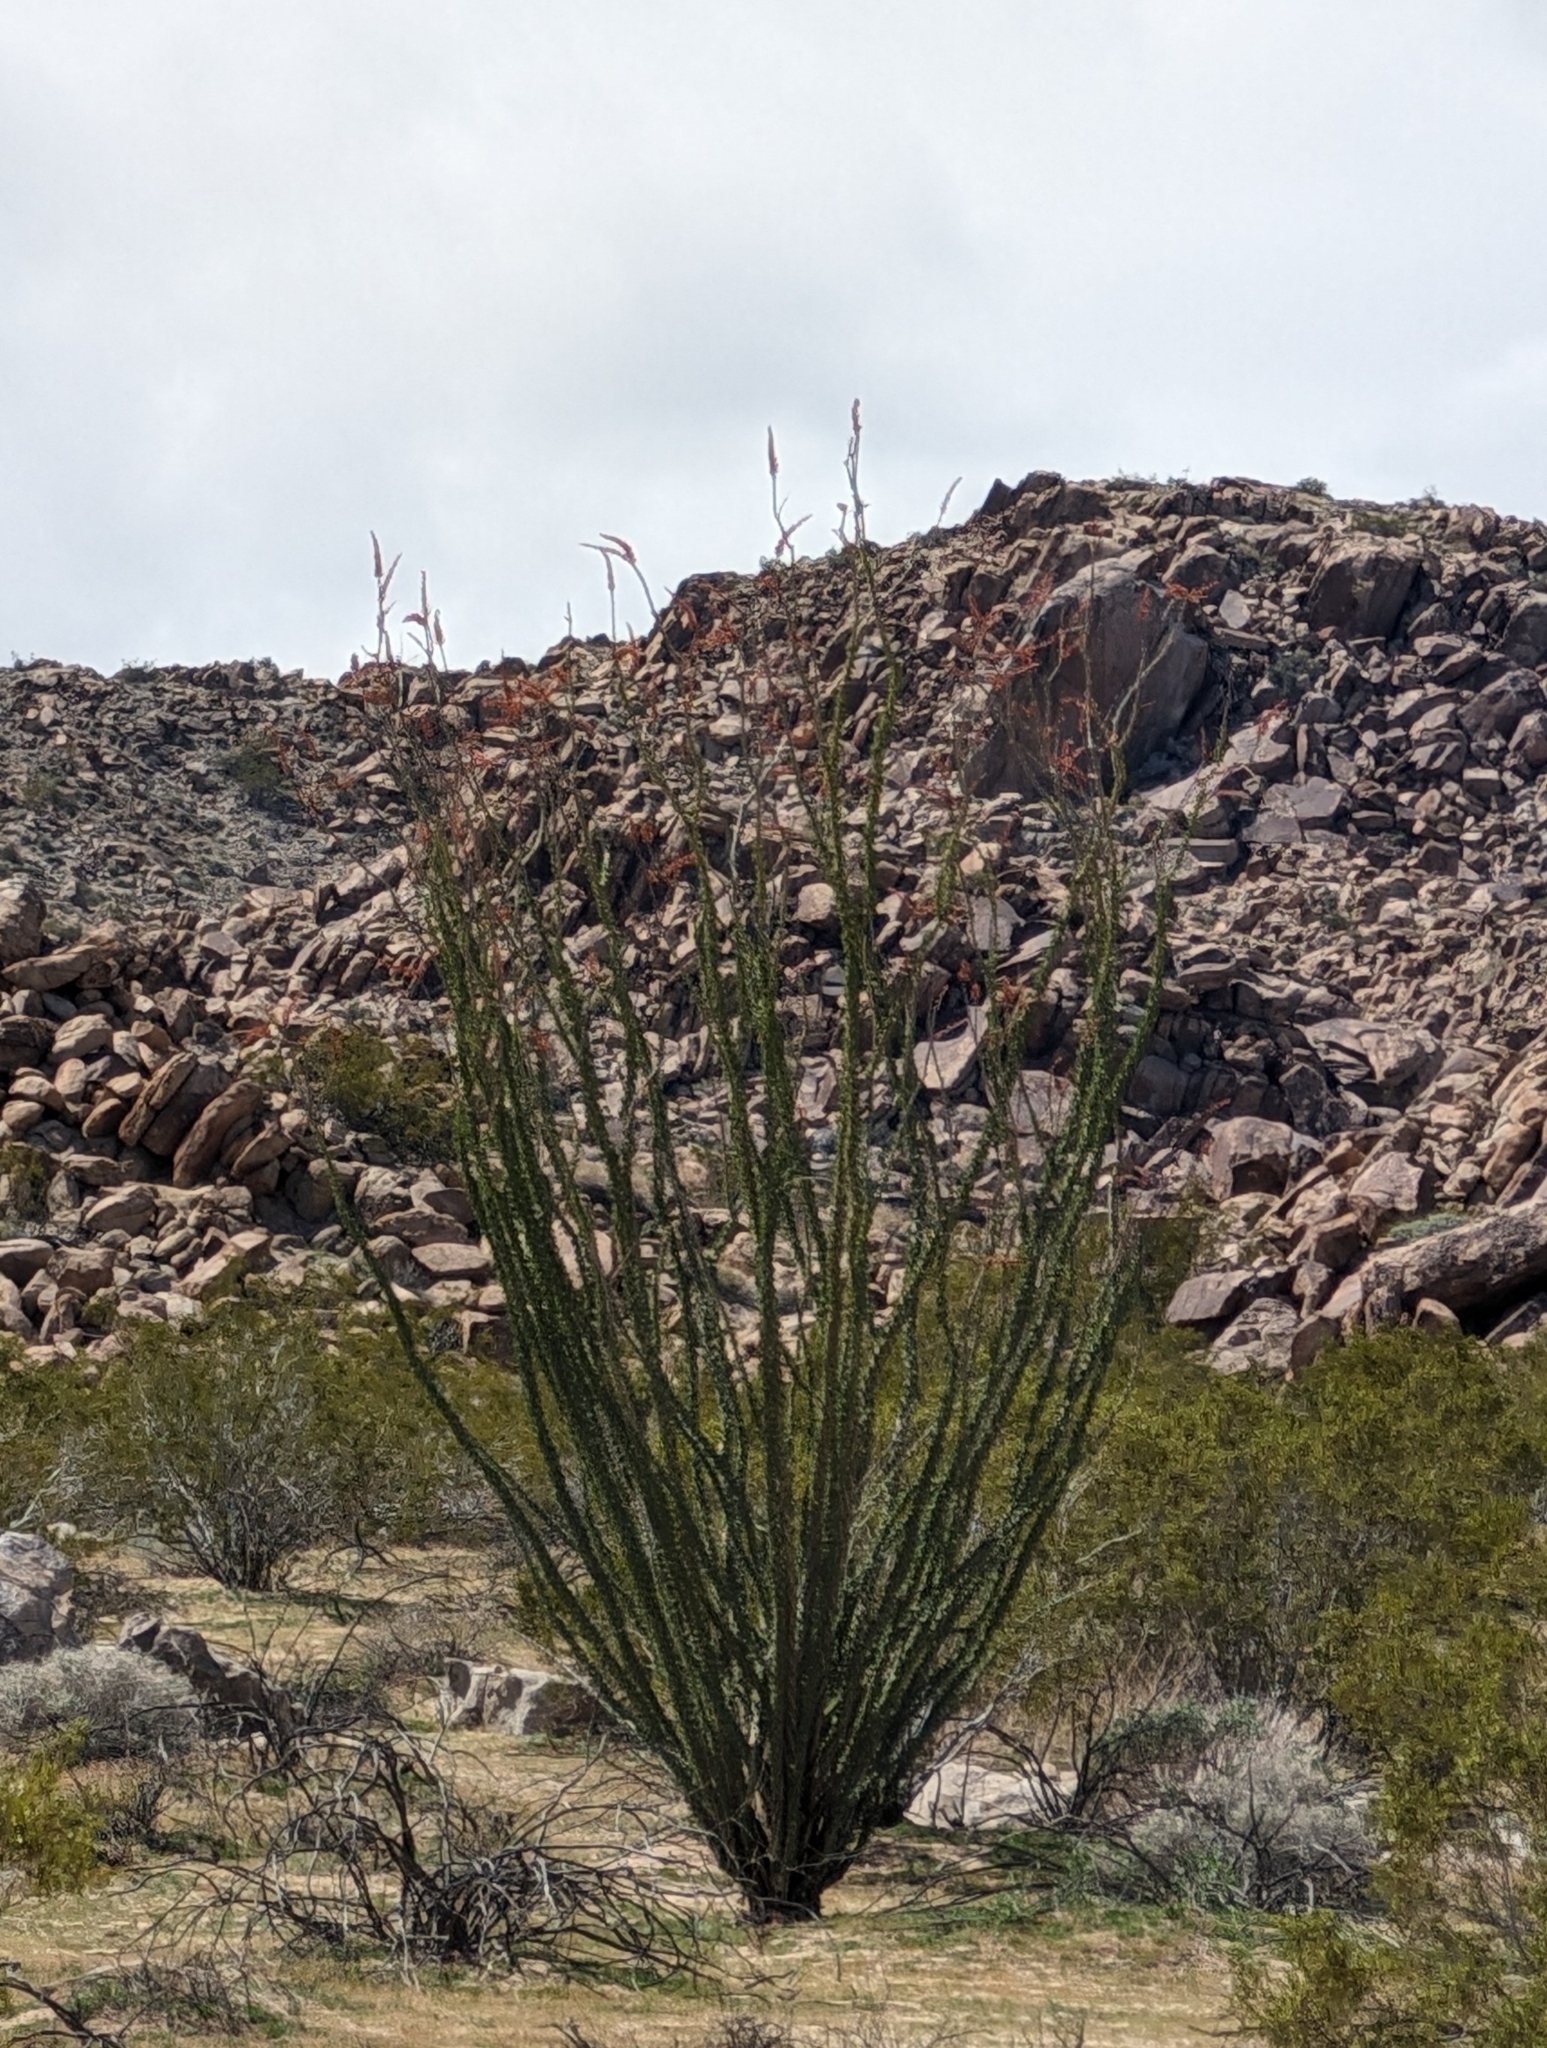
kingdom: Plantae
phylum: Tracheophyta
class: Magnoliopsida
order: Ericales
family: Fouquieriaceae
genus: Fouquieria
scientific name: Fouquieria splendens
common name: Vine-cactus
